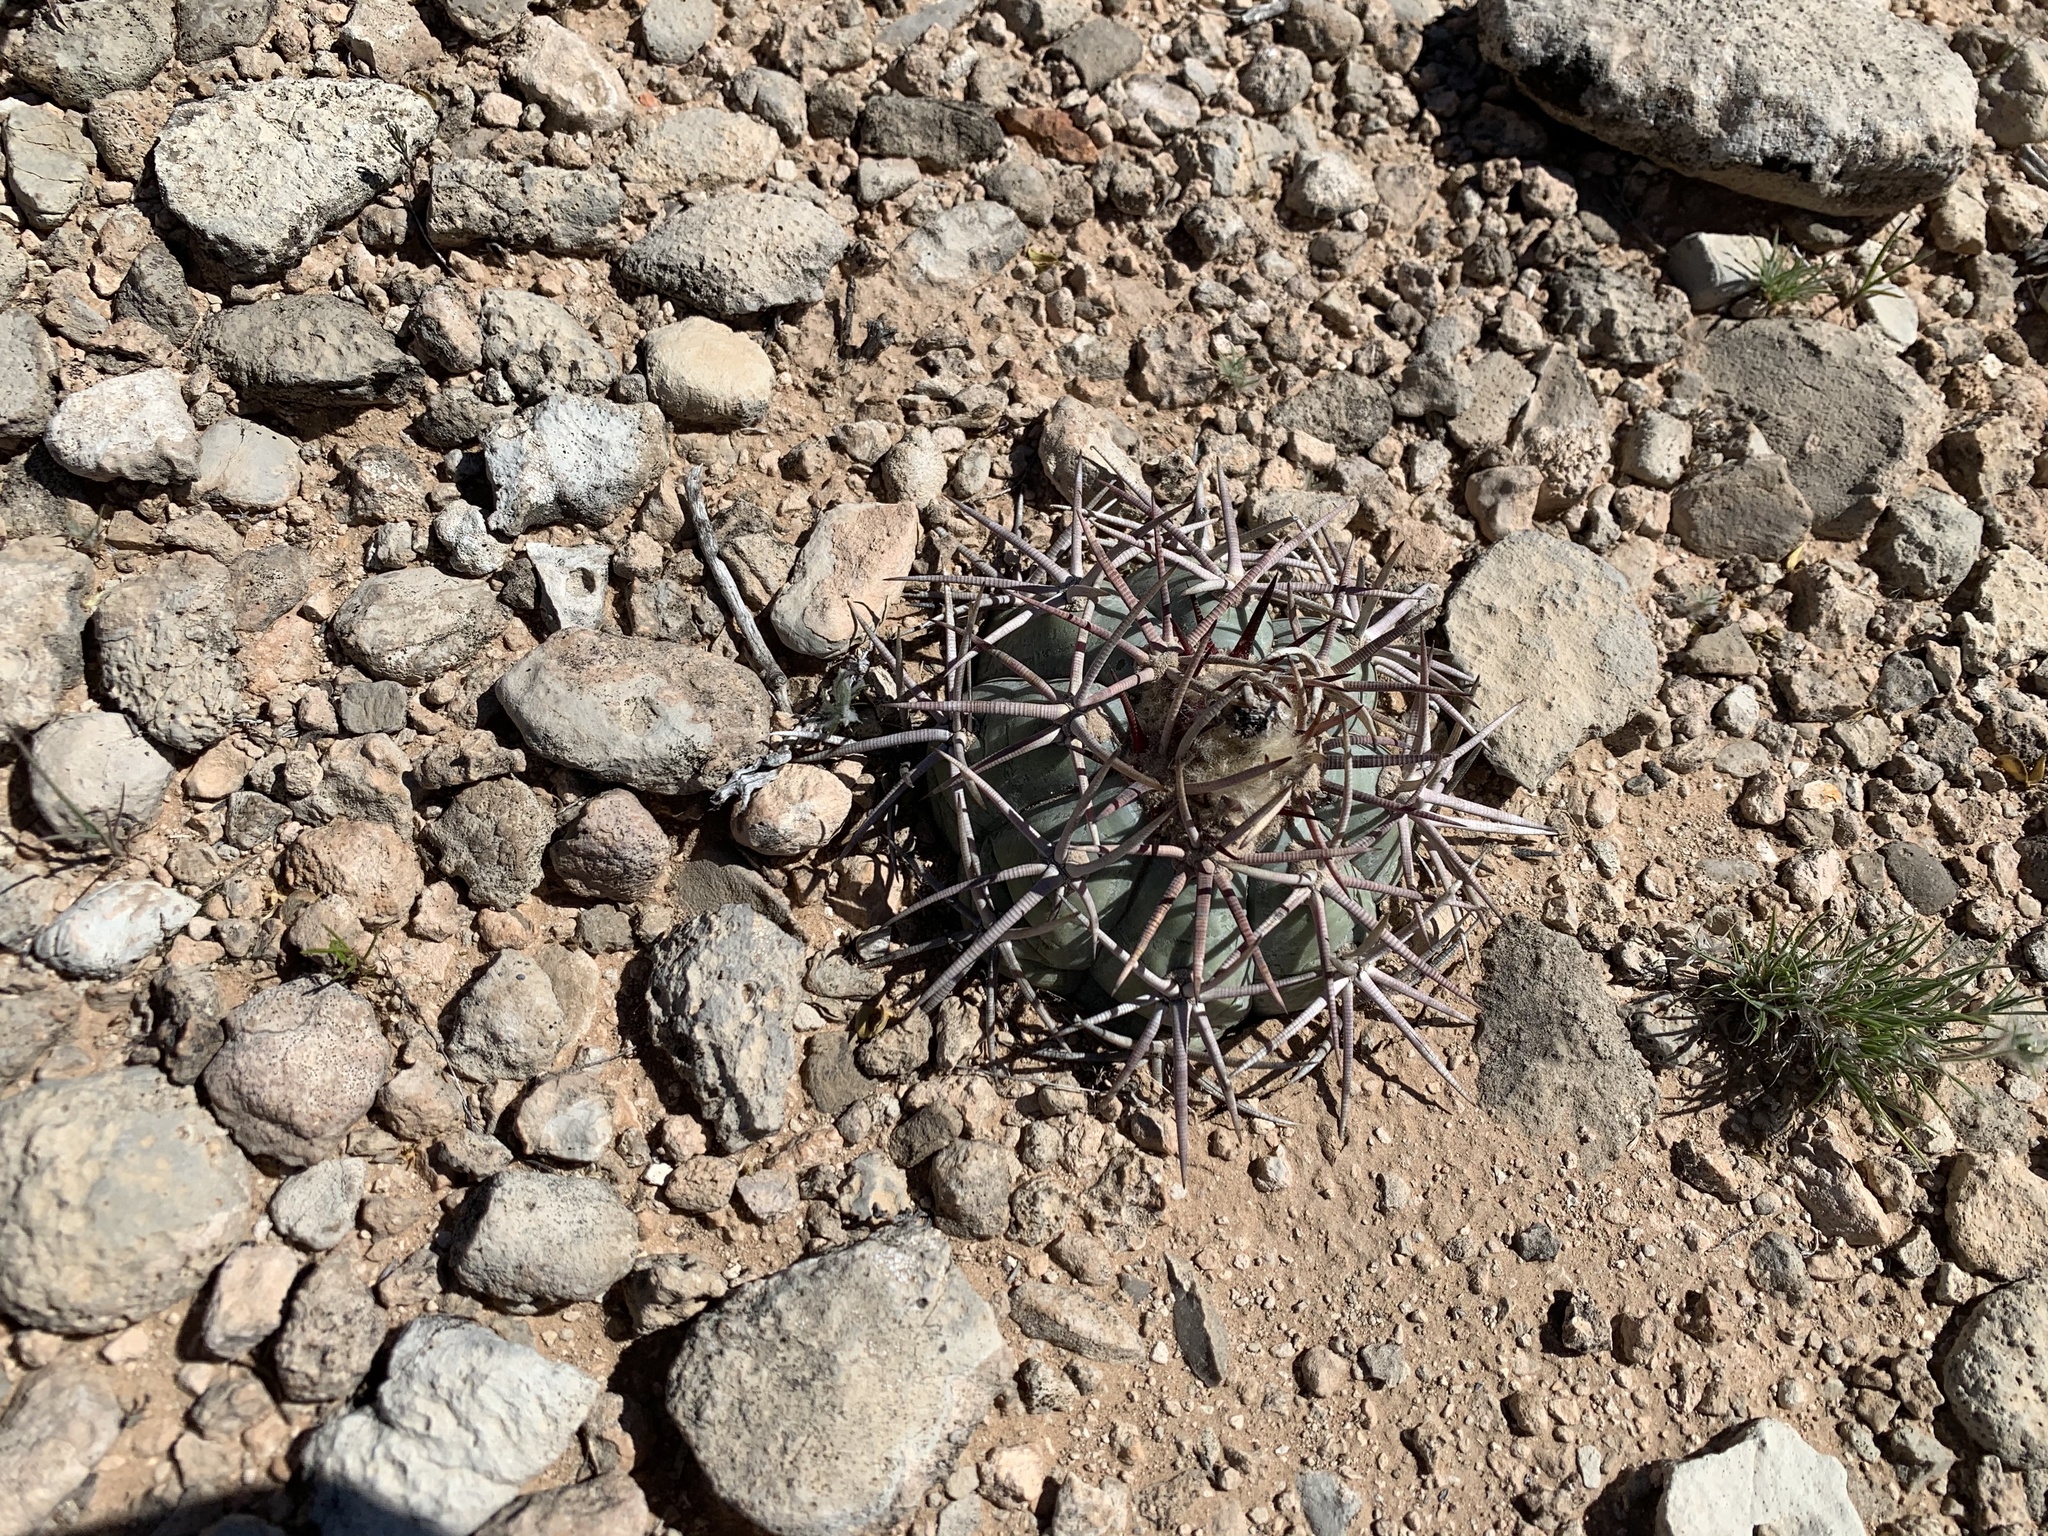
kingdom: Plantae
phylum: Tracheophyta
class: Magnoliopsida
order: Caryophyllales
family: Cactaceae
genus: Echinocactus
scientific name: Echinocactus horizonthalonius
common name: Devilshead
